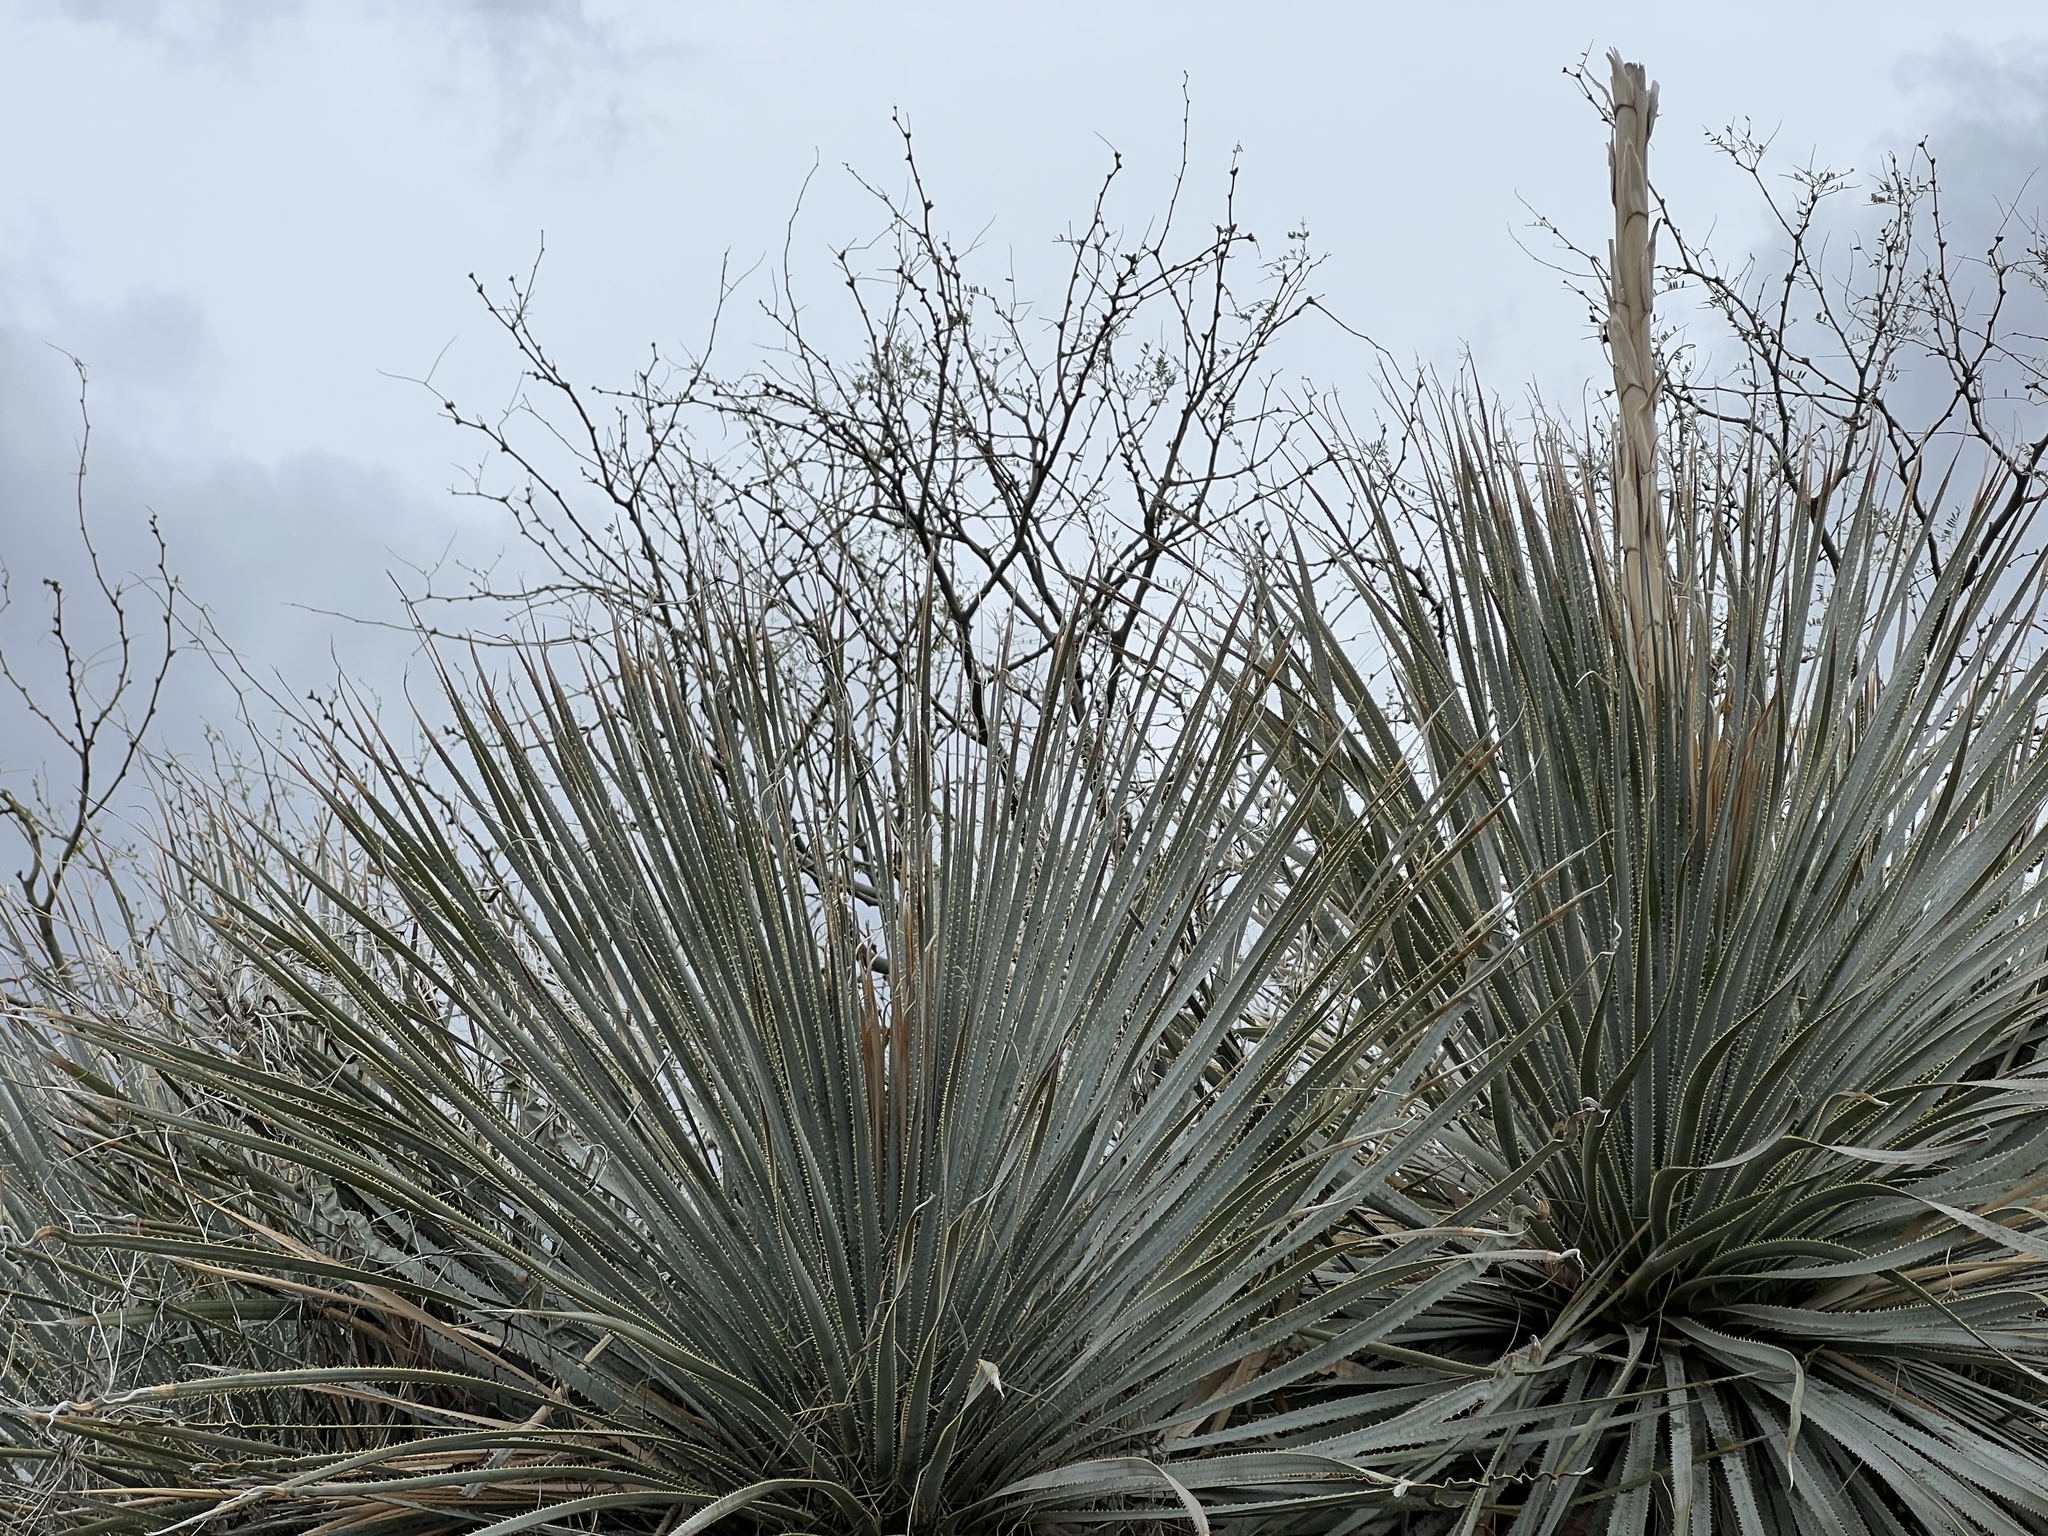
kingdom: Plantae
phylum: Tracheophyta
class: Liliopsida
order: Asparagales
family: Asparagaceae
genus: Dasylirion
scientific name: Dasylirion wheeleri
